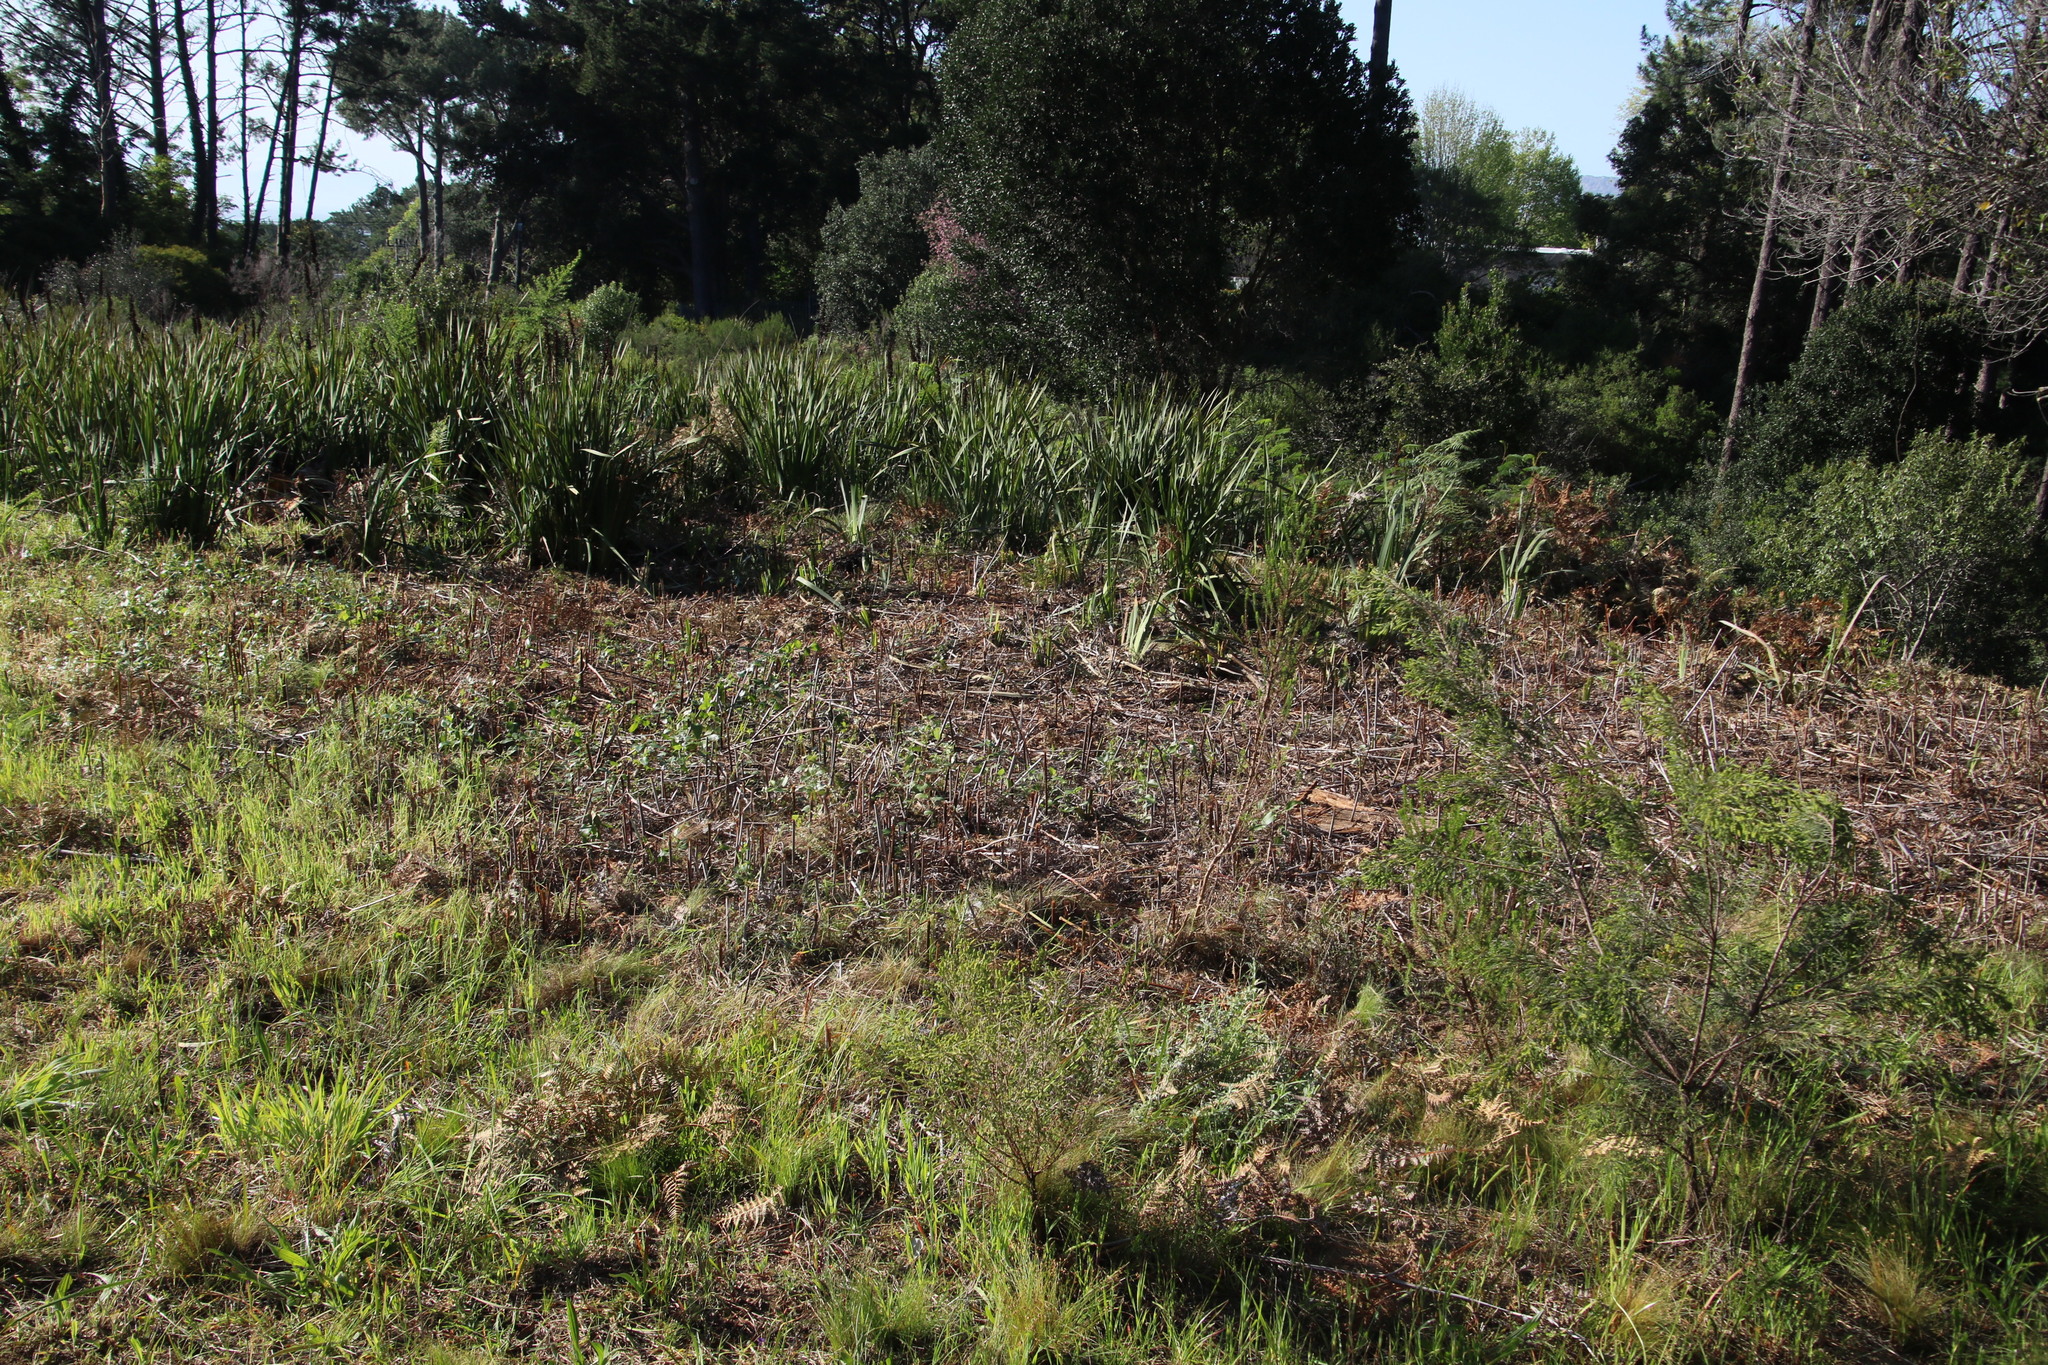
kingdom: Plantae
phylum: Tracheophyta
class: Polypodiopsida
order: Polypodiales
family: Dennstaedtiaceae
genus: Pteridium
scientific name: Pteridium aquilinum
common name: Bracken
